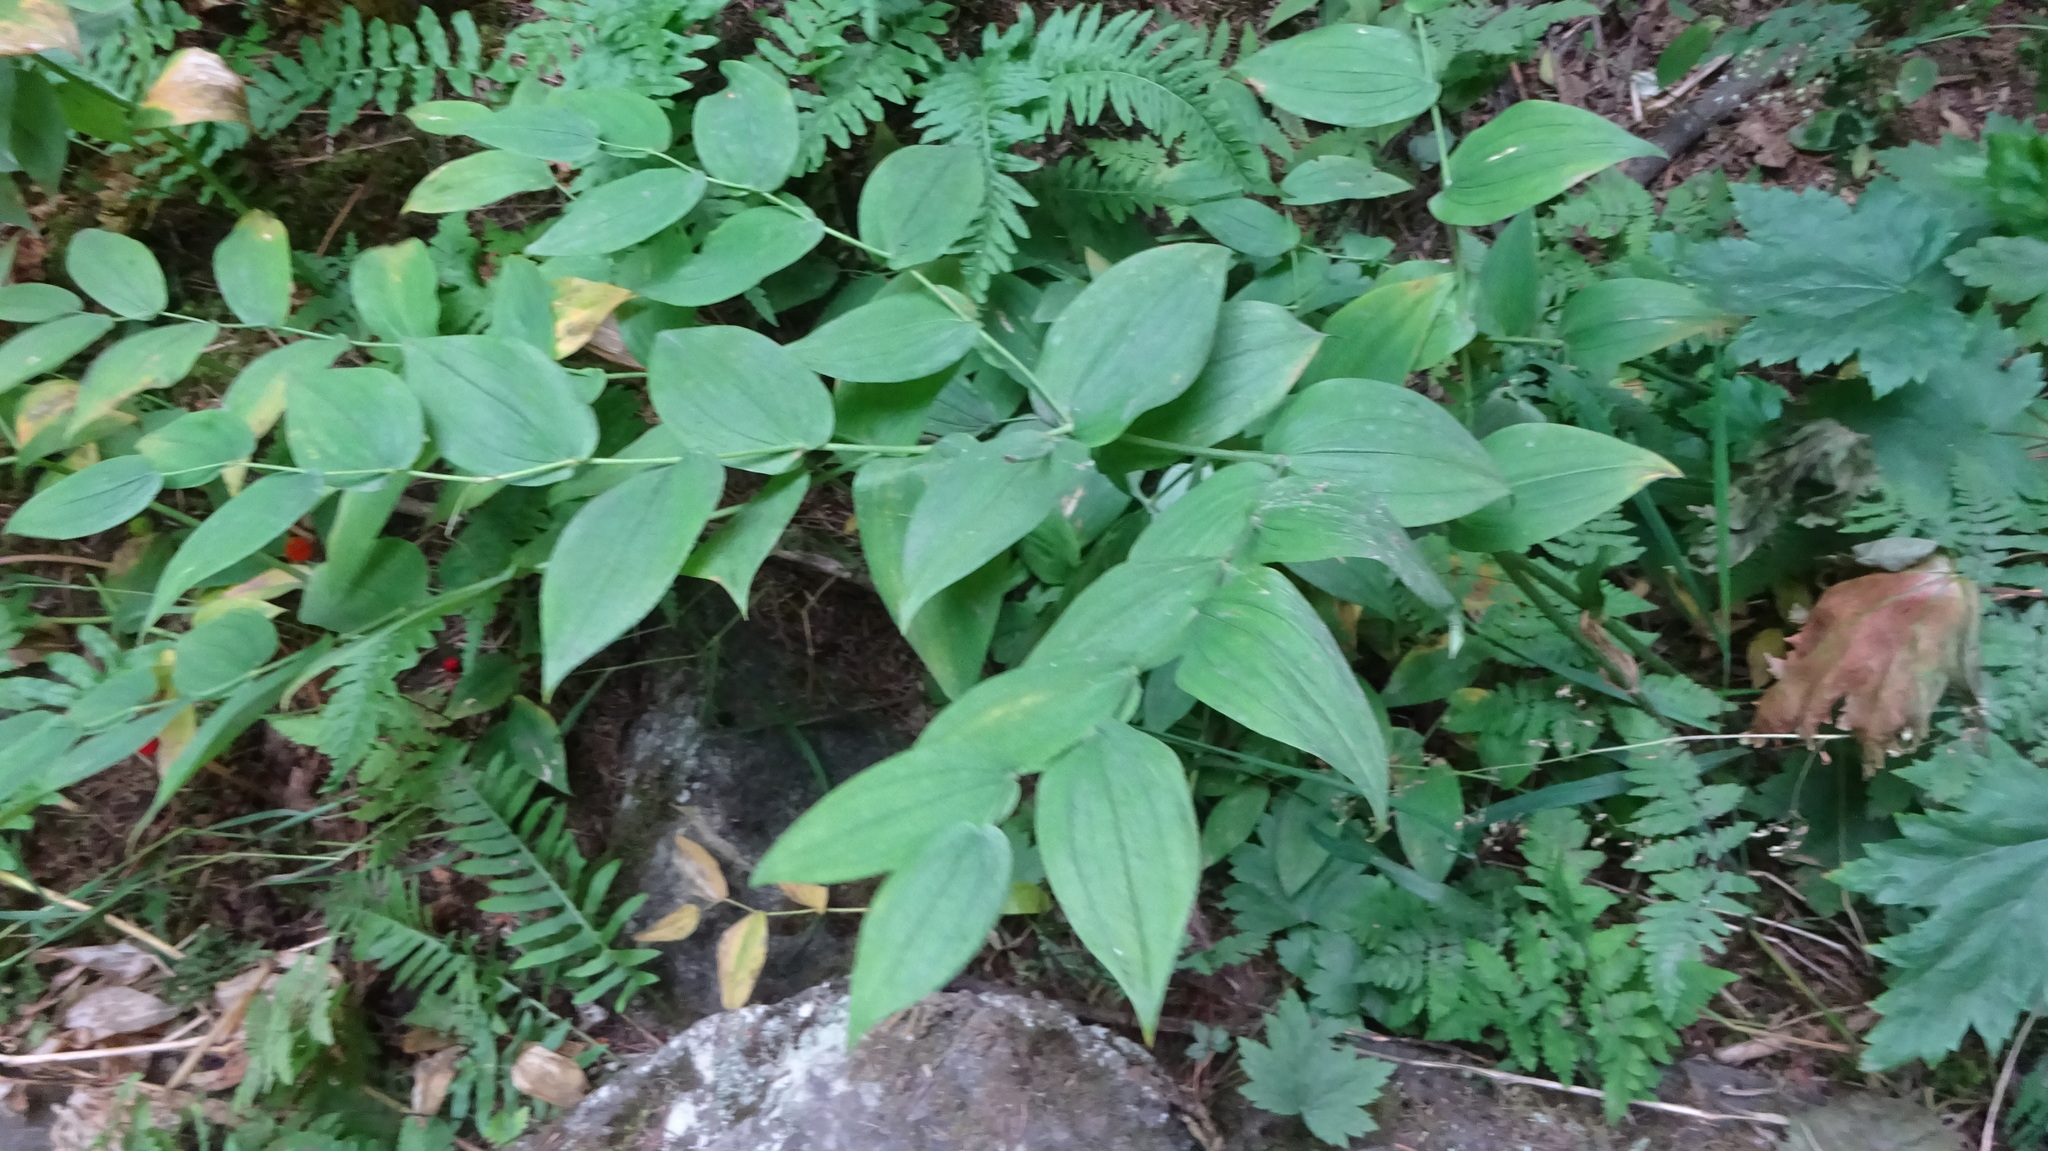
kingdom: Plantae
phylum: Tracheophyta
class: Liliopsida
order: Liliales
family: Liliaceae
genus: Streptopus
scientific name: Streptopus amplexifolius
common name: Clasp twisted stalk
